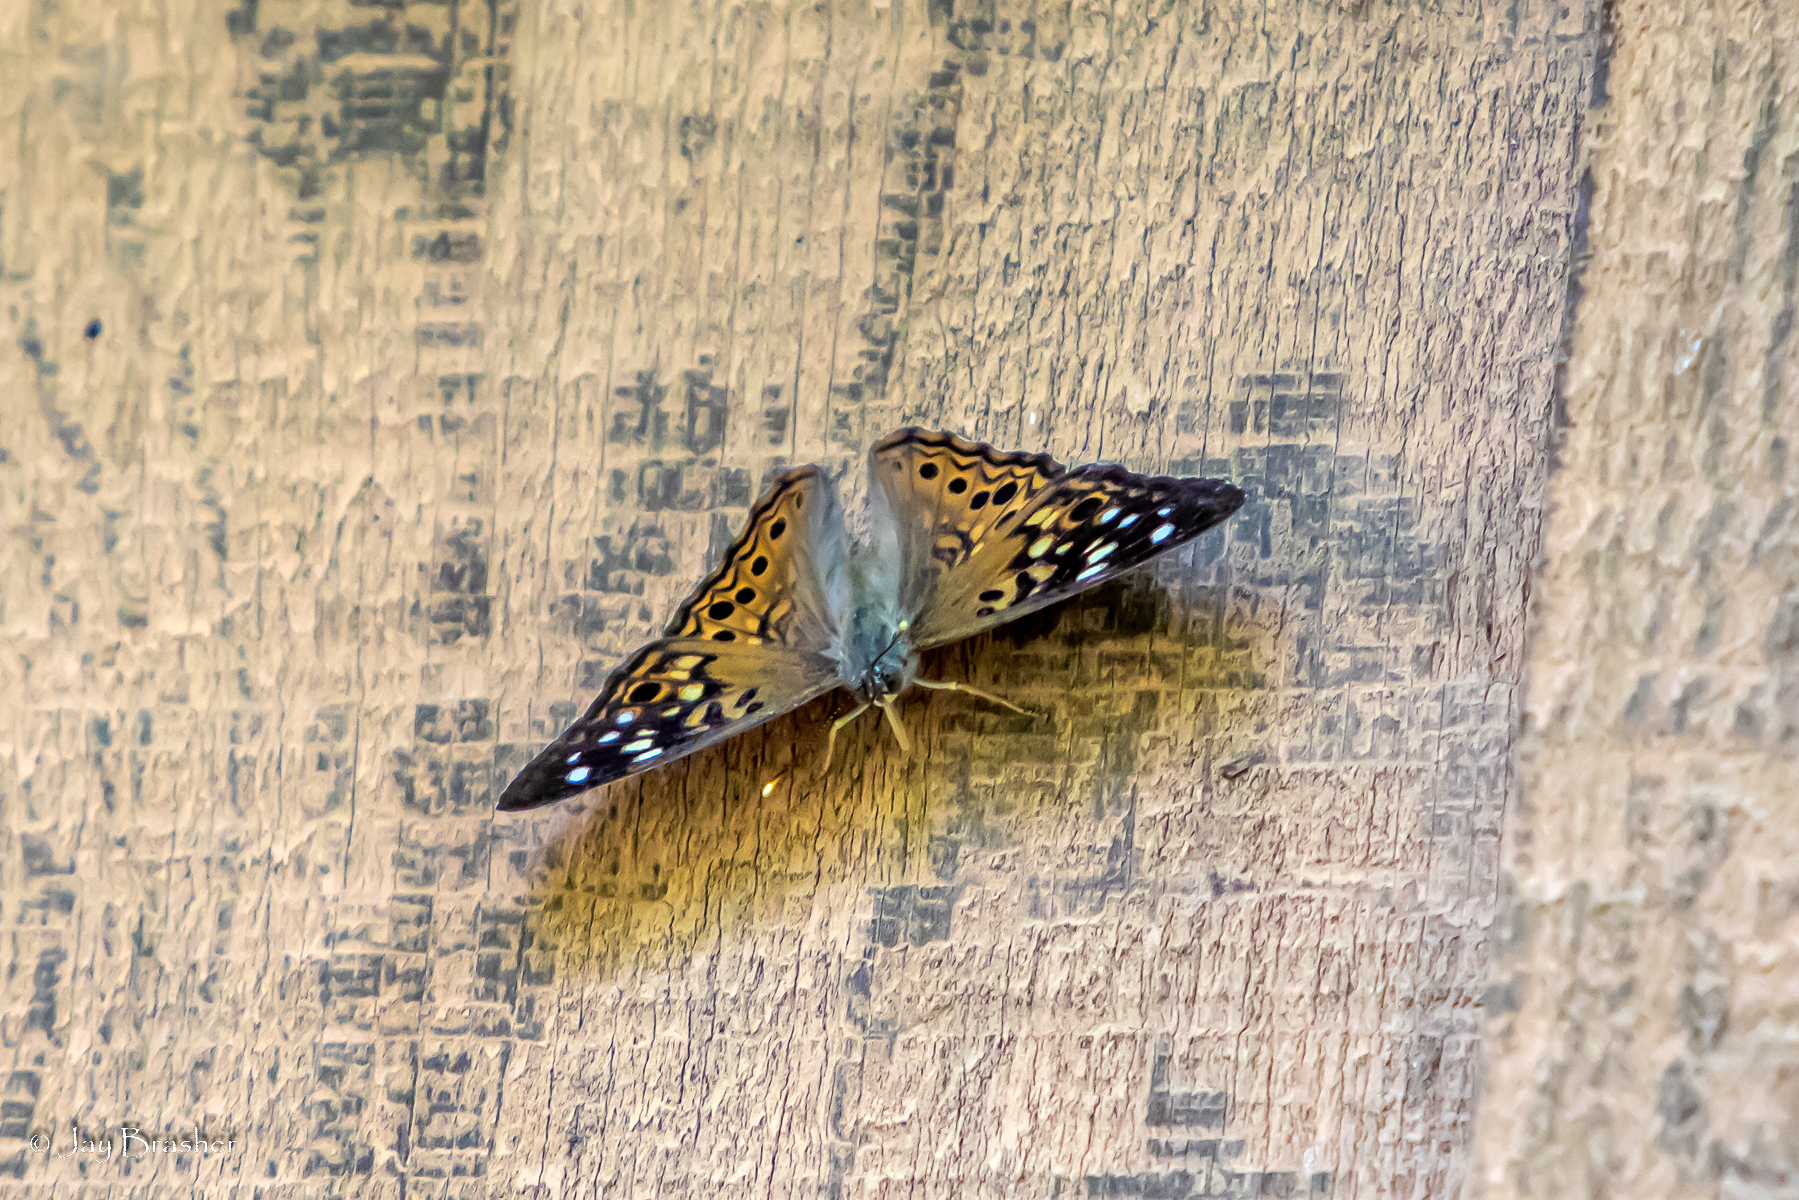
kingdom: Animalia
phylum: Arthropoda
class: Insecta
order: Lepidoptera
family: Nymphalidae
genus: Asterocampa
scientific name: Asterocampa celtis
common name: Hackberry emperor
